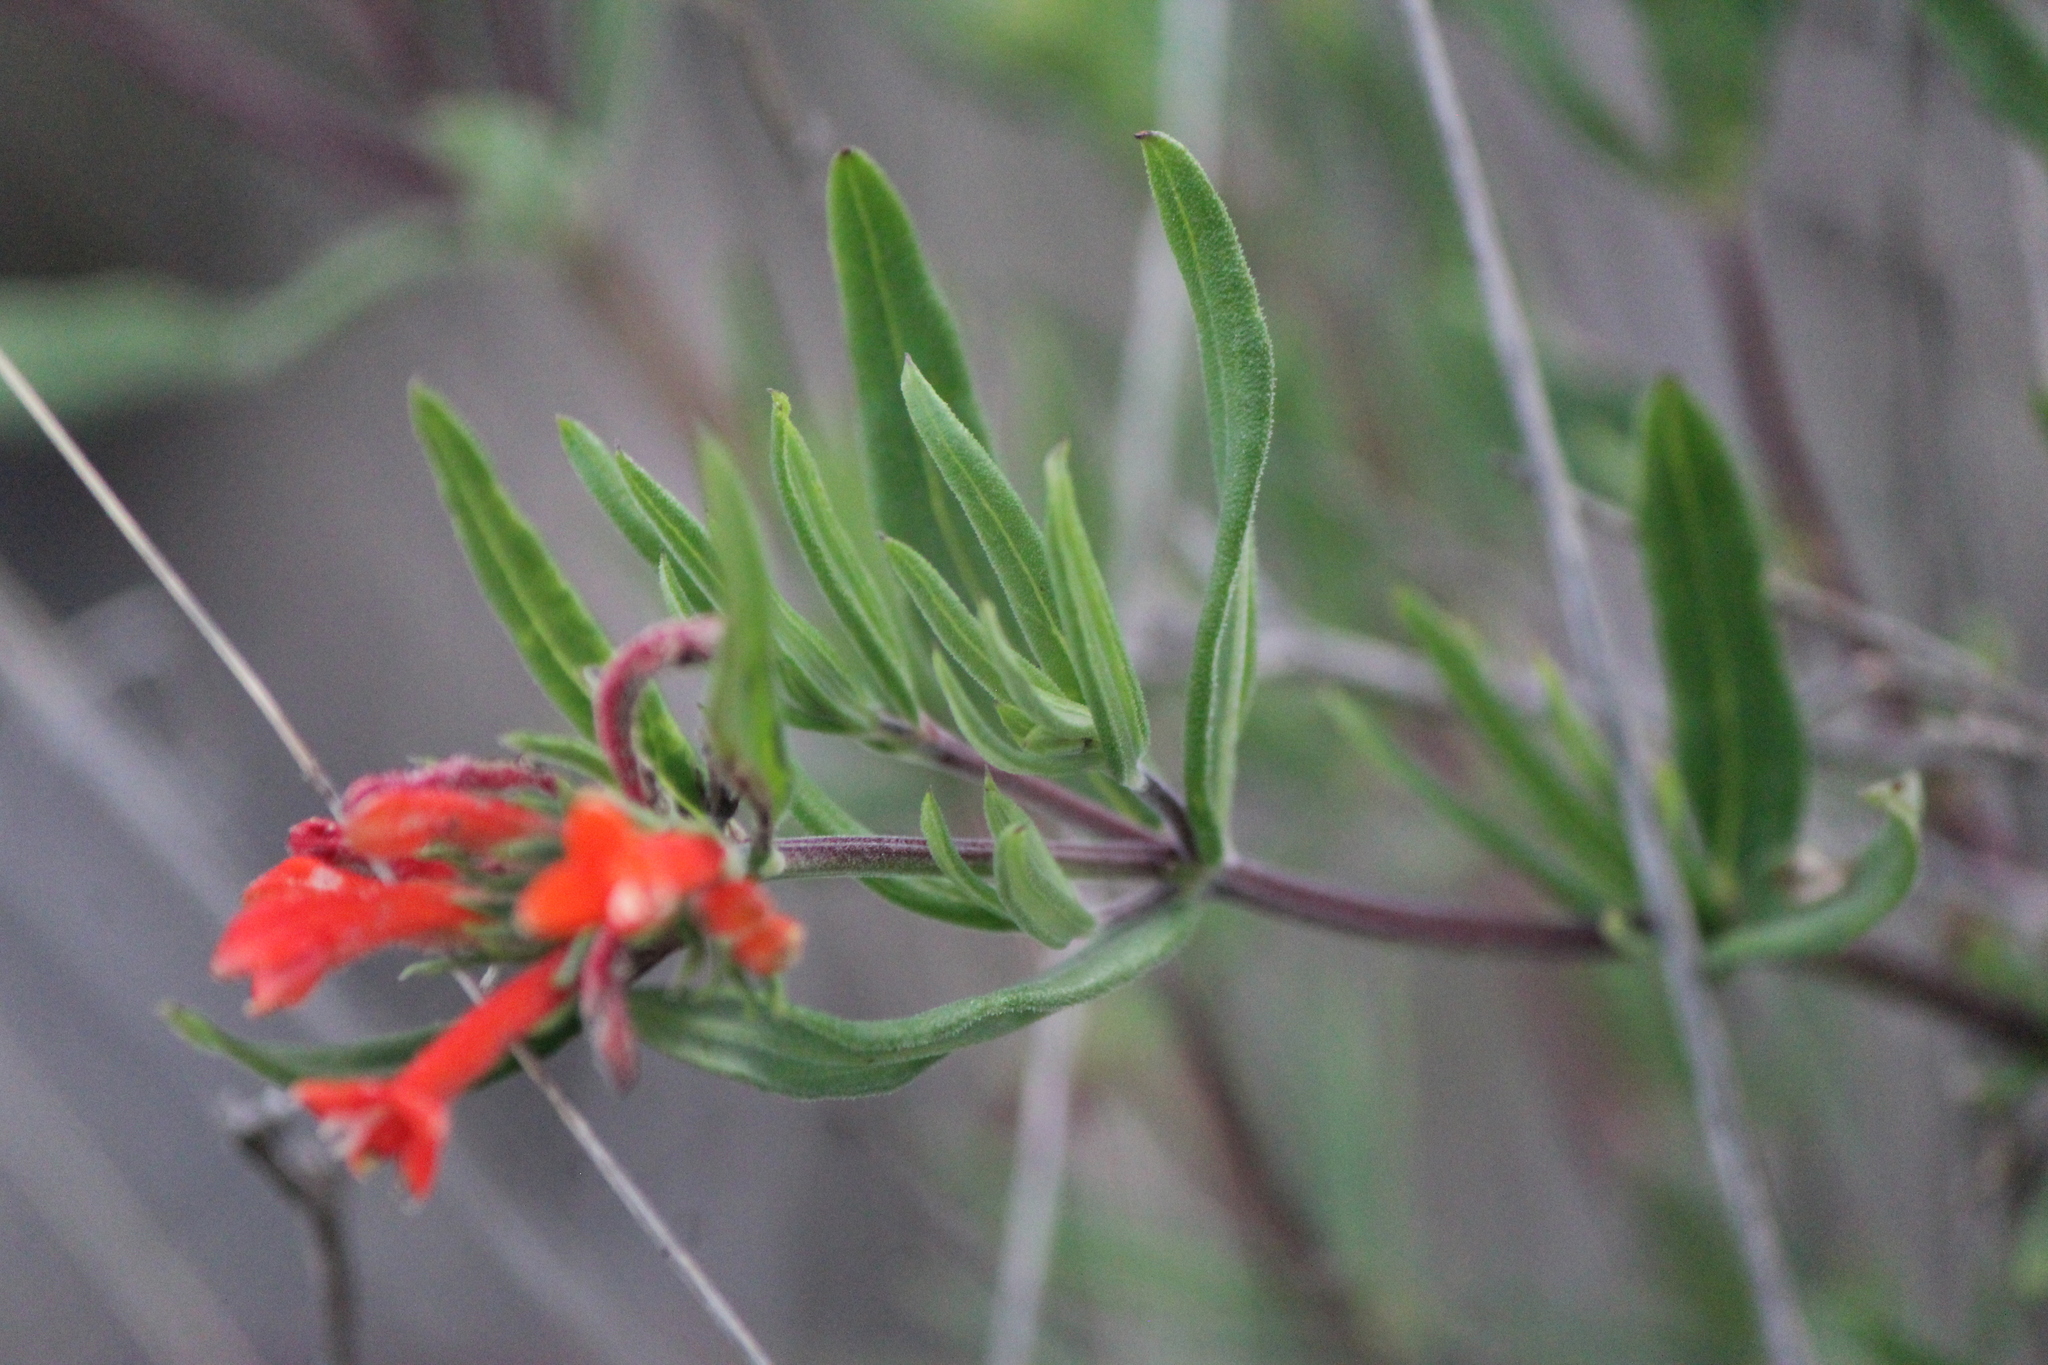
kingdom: Plantae
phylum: Tracheophyta
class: Magnoliopsida
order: Gentianales
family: Rubiaceae
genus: Bouvardia
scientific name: Bouvardia tenuifolia
